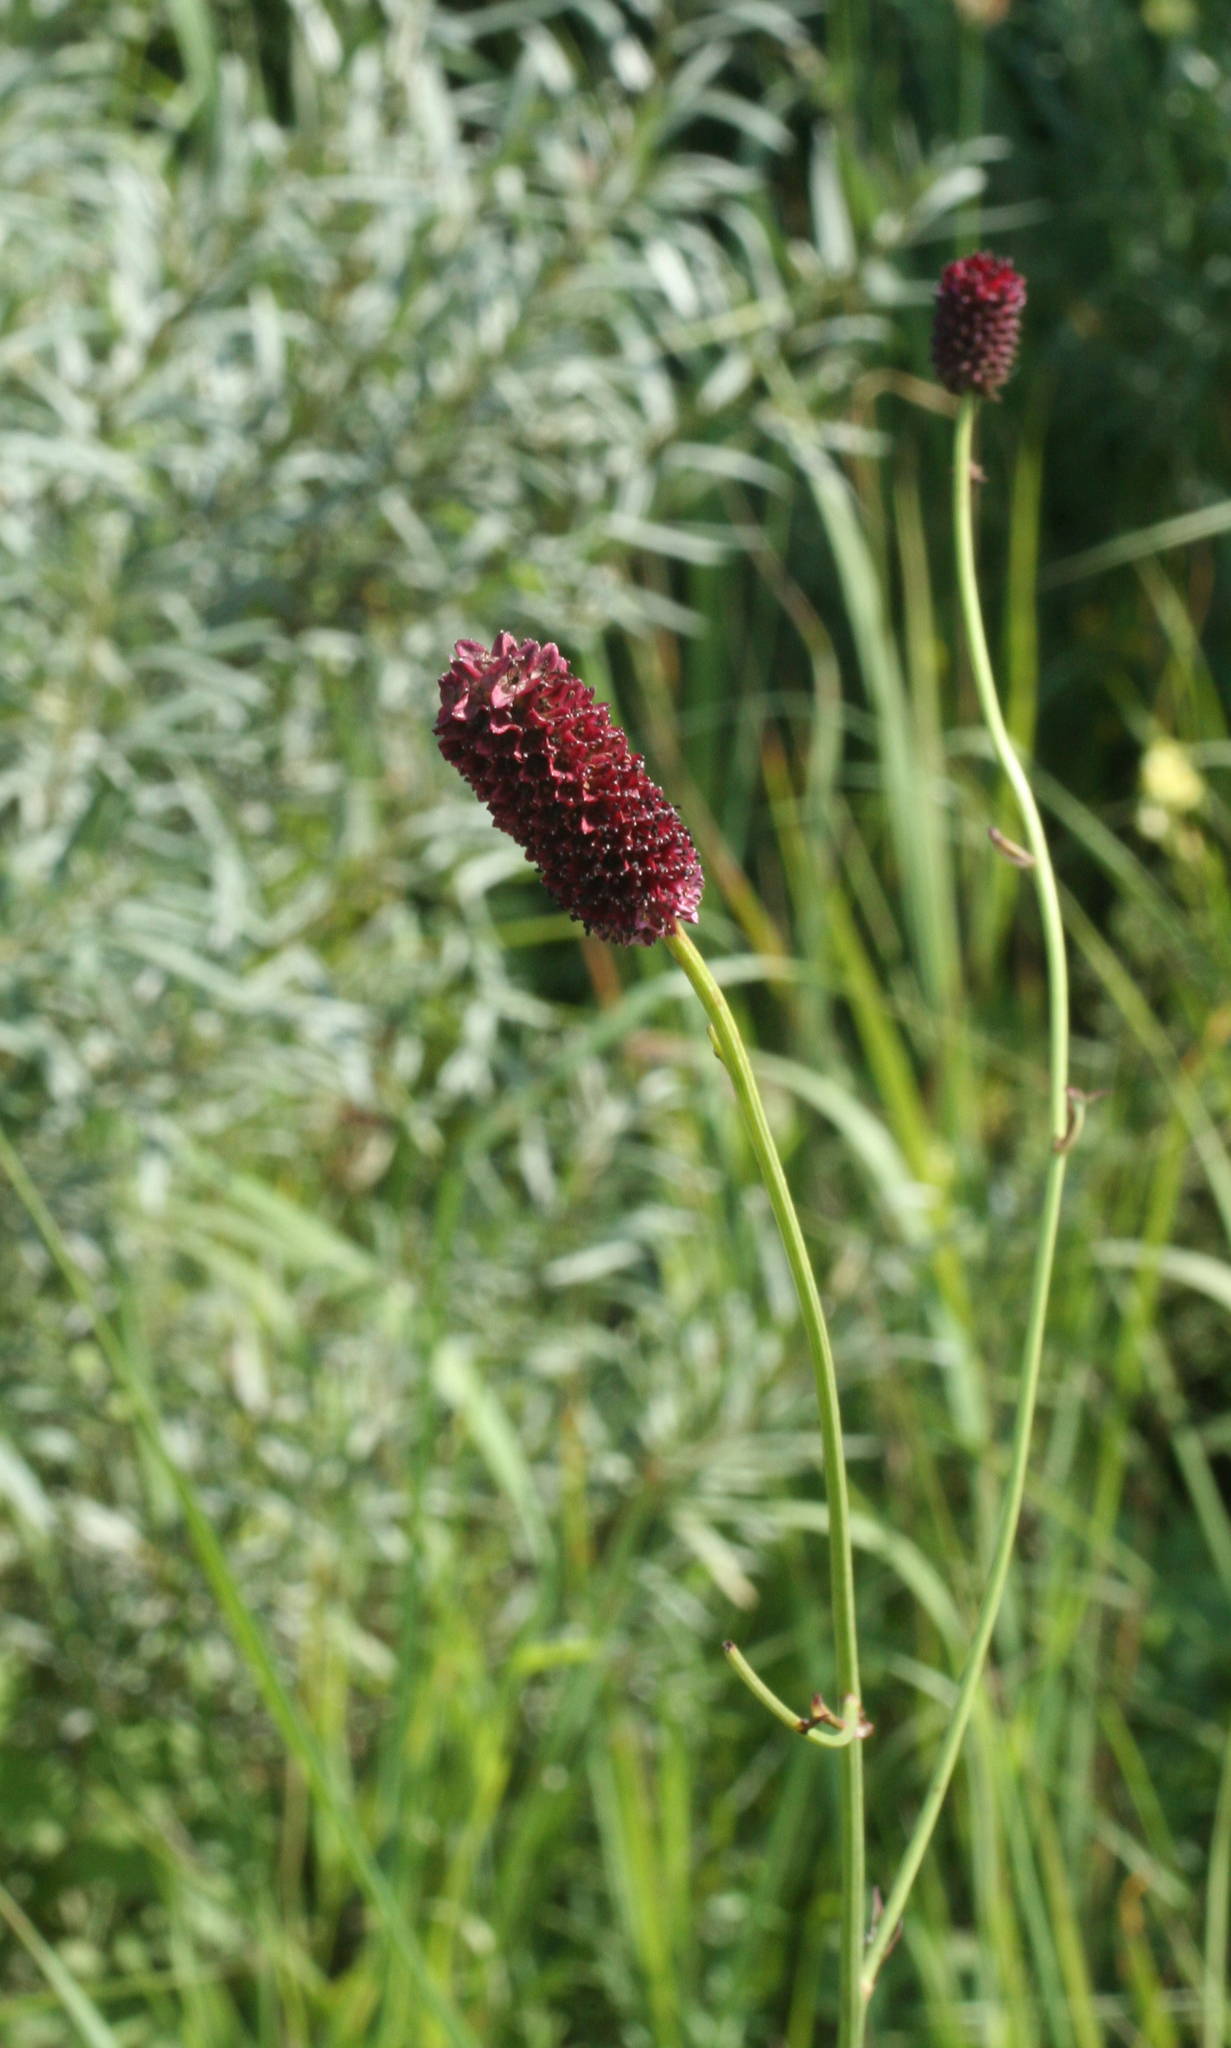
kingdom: Plantae
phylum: Tracheophyta
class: Magnoliopsida
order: Rosales
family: Rosaceae
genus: Sanguisorba
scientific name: Sanguisorba officinalis
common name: Great burnet
